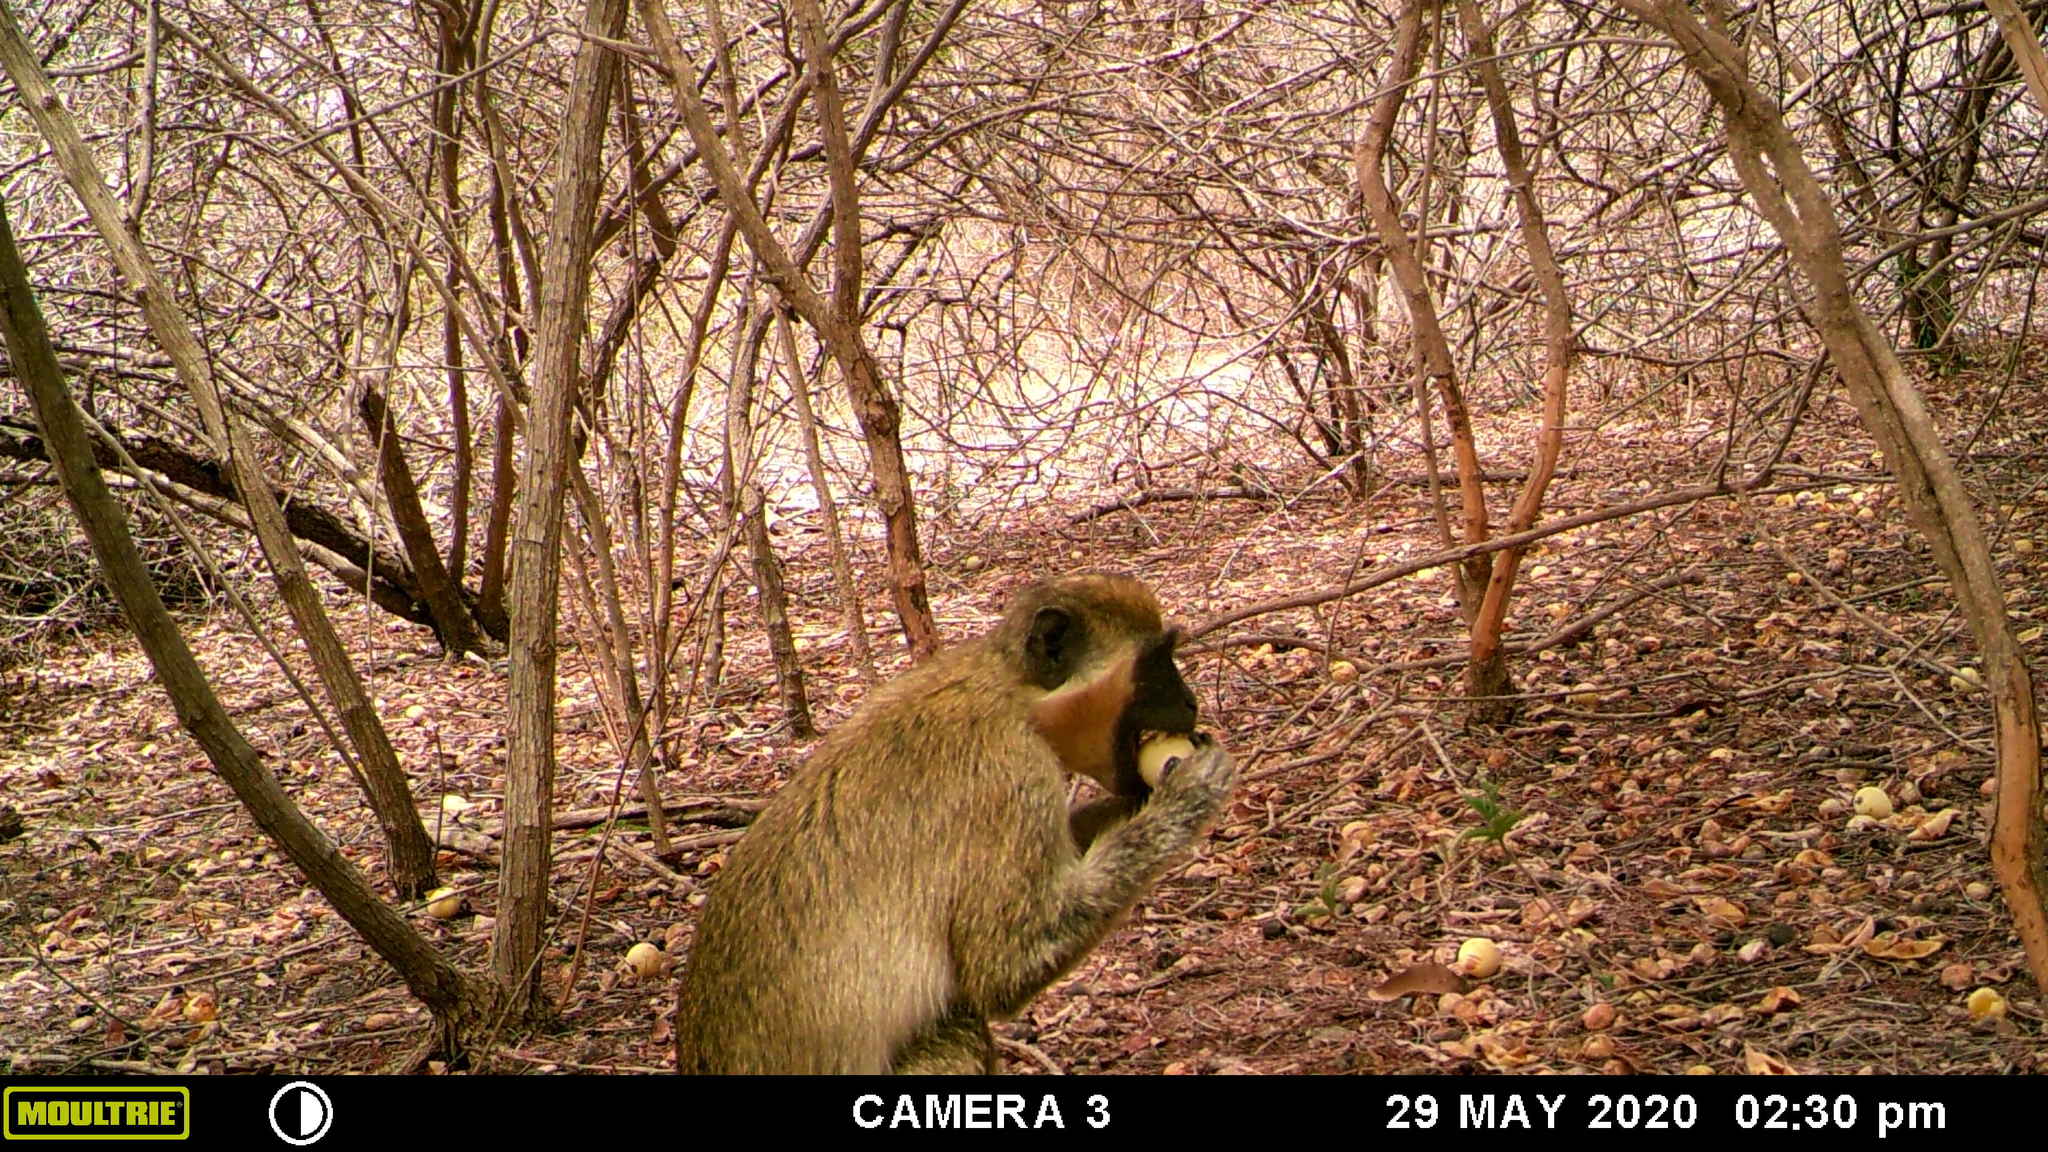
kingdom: Animalia
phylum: Chordata
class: Mammalia
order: Primates
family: Cercopithecidae
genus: Chlorocebus
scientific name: Chlorocebus sabaeus
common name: Green monkey
